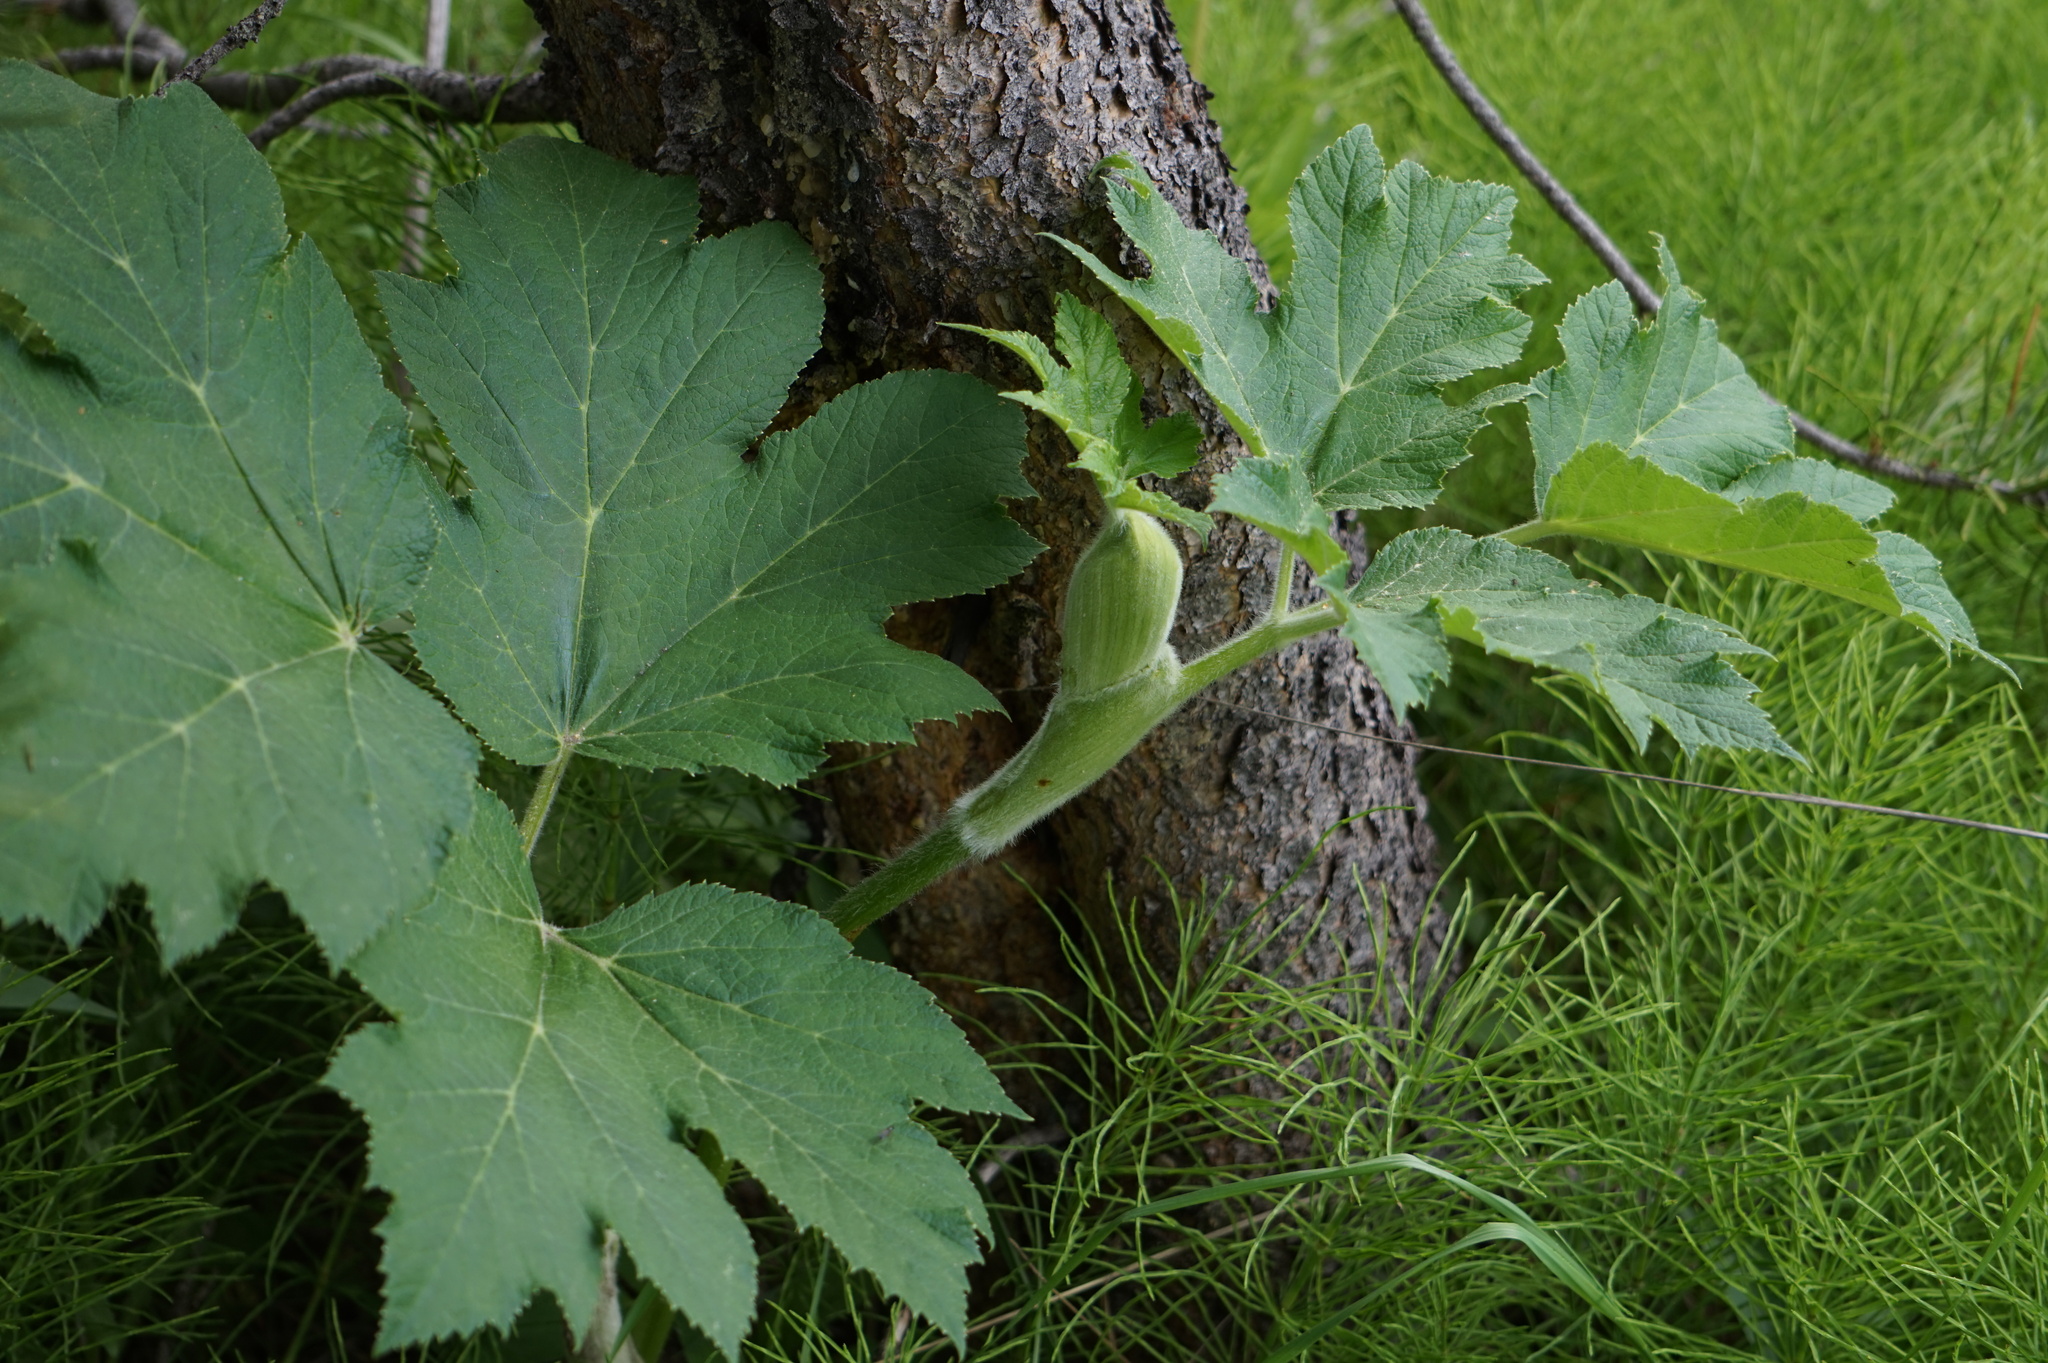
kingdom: Plantae
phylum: Tracheophyta
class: Magnoliopsida
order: Apiales
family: Apiaceae
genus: Heracleum
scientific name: Heracleum maximum
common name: American cow parsnip
